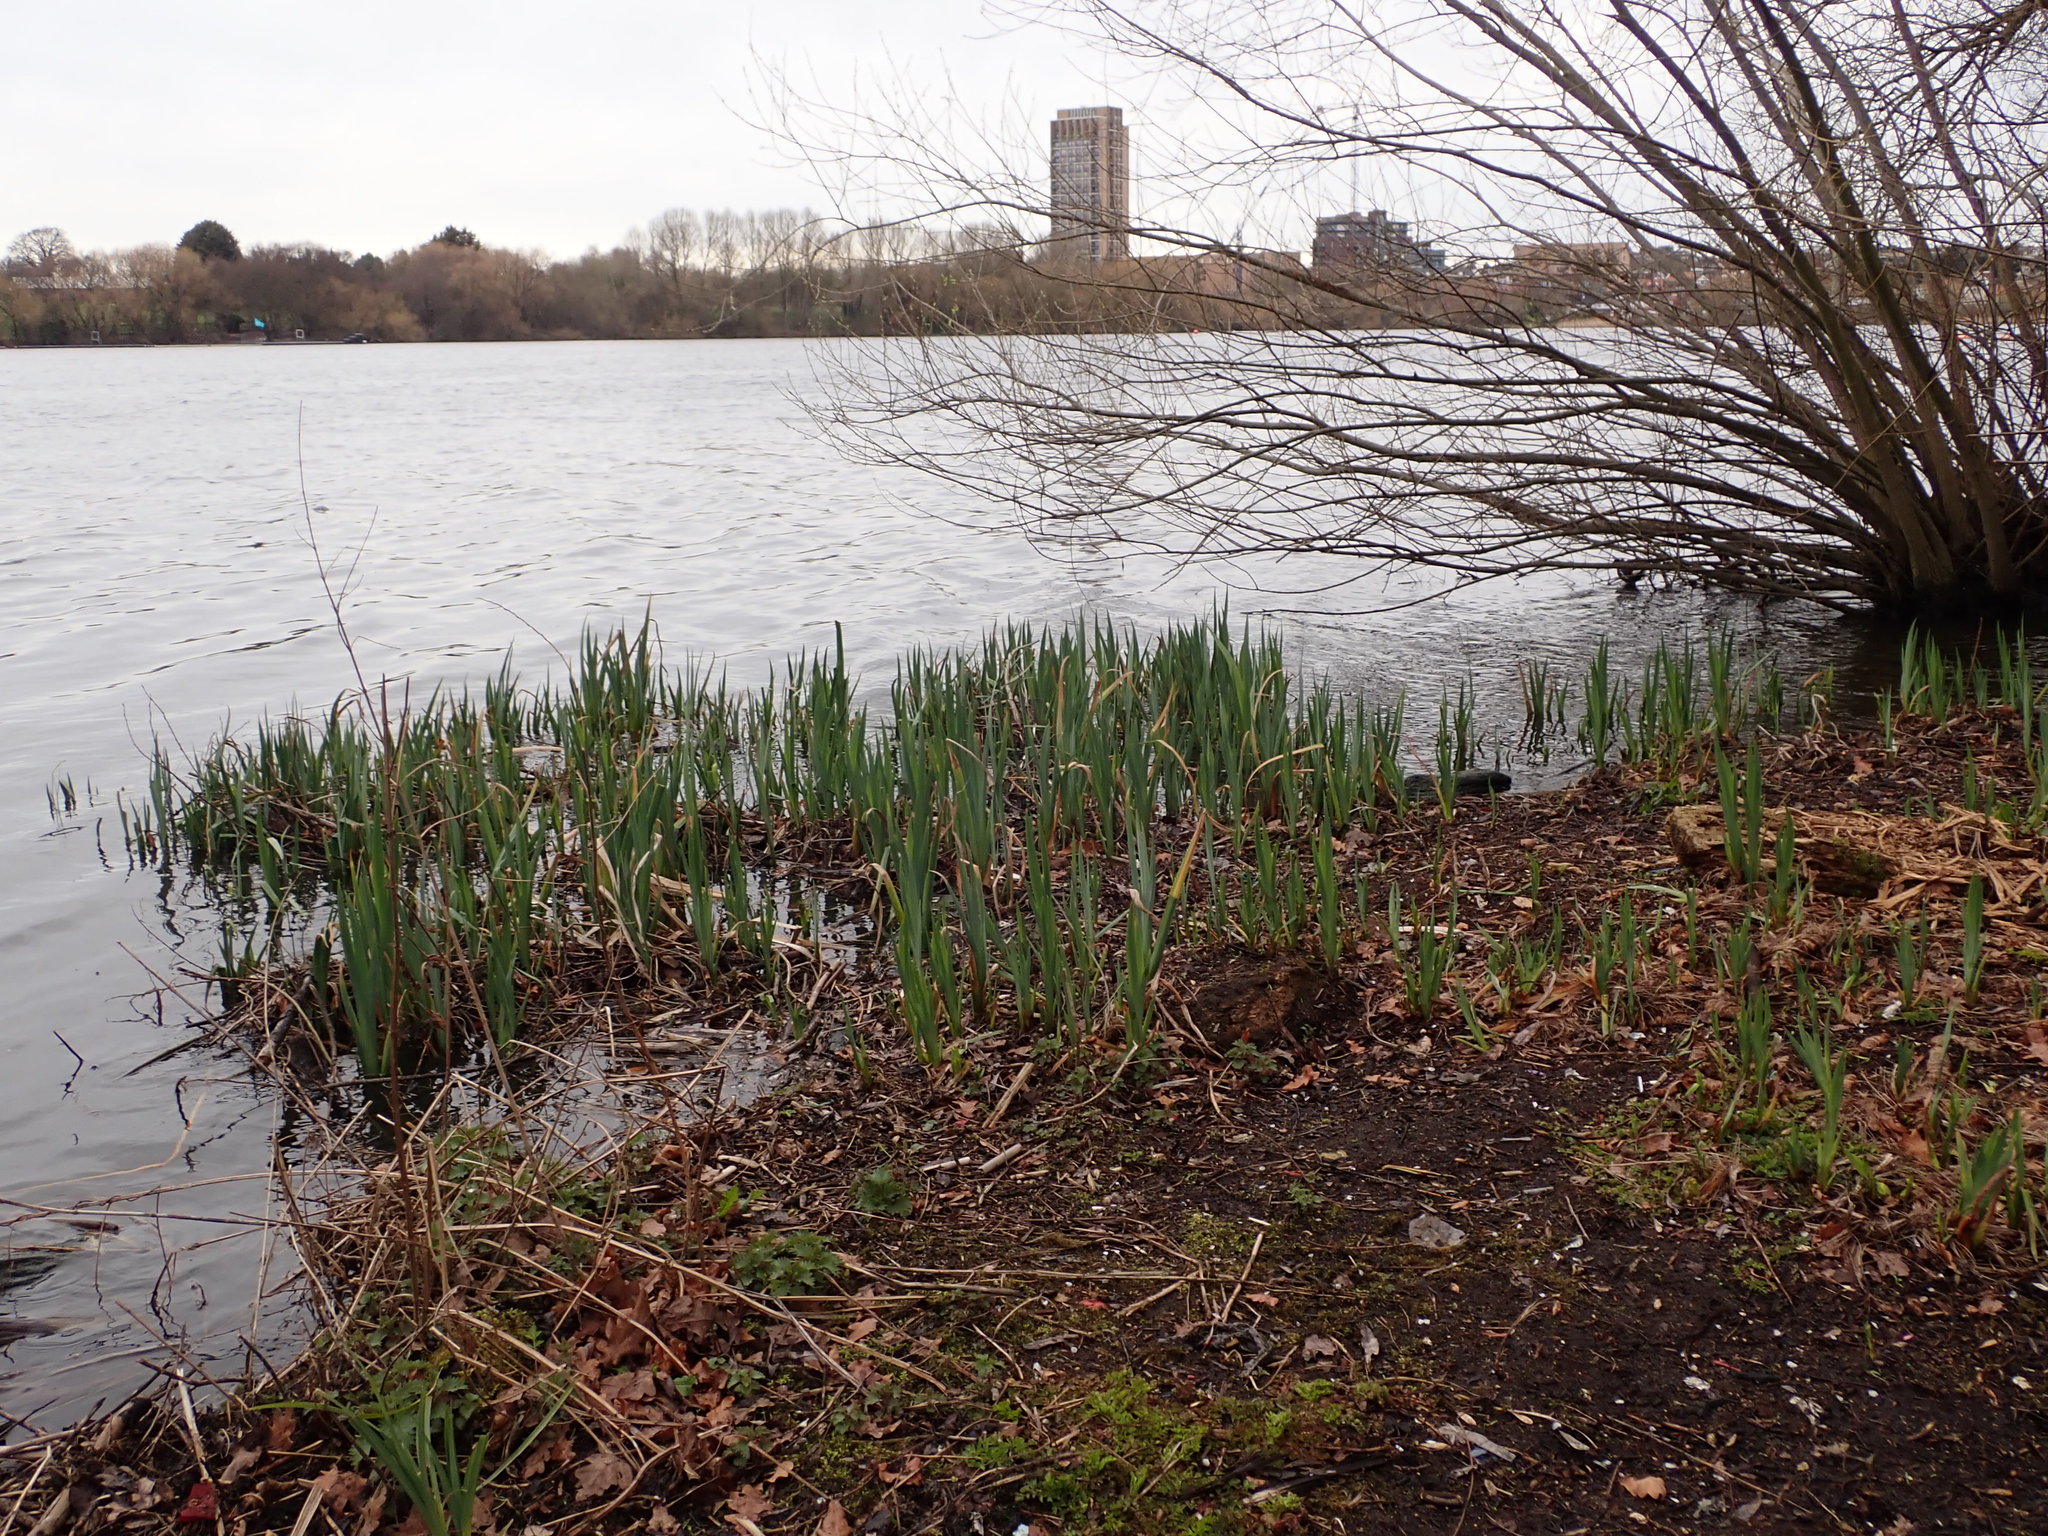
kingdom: Plantae
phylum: Tracheophyta
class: Liliopsida
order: Asparagales
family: Iridaceae
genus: Iris
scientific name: Iris pseudacorus
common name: Yellow flag
